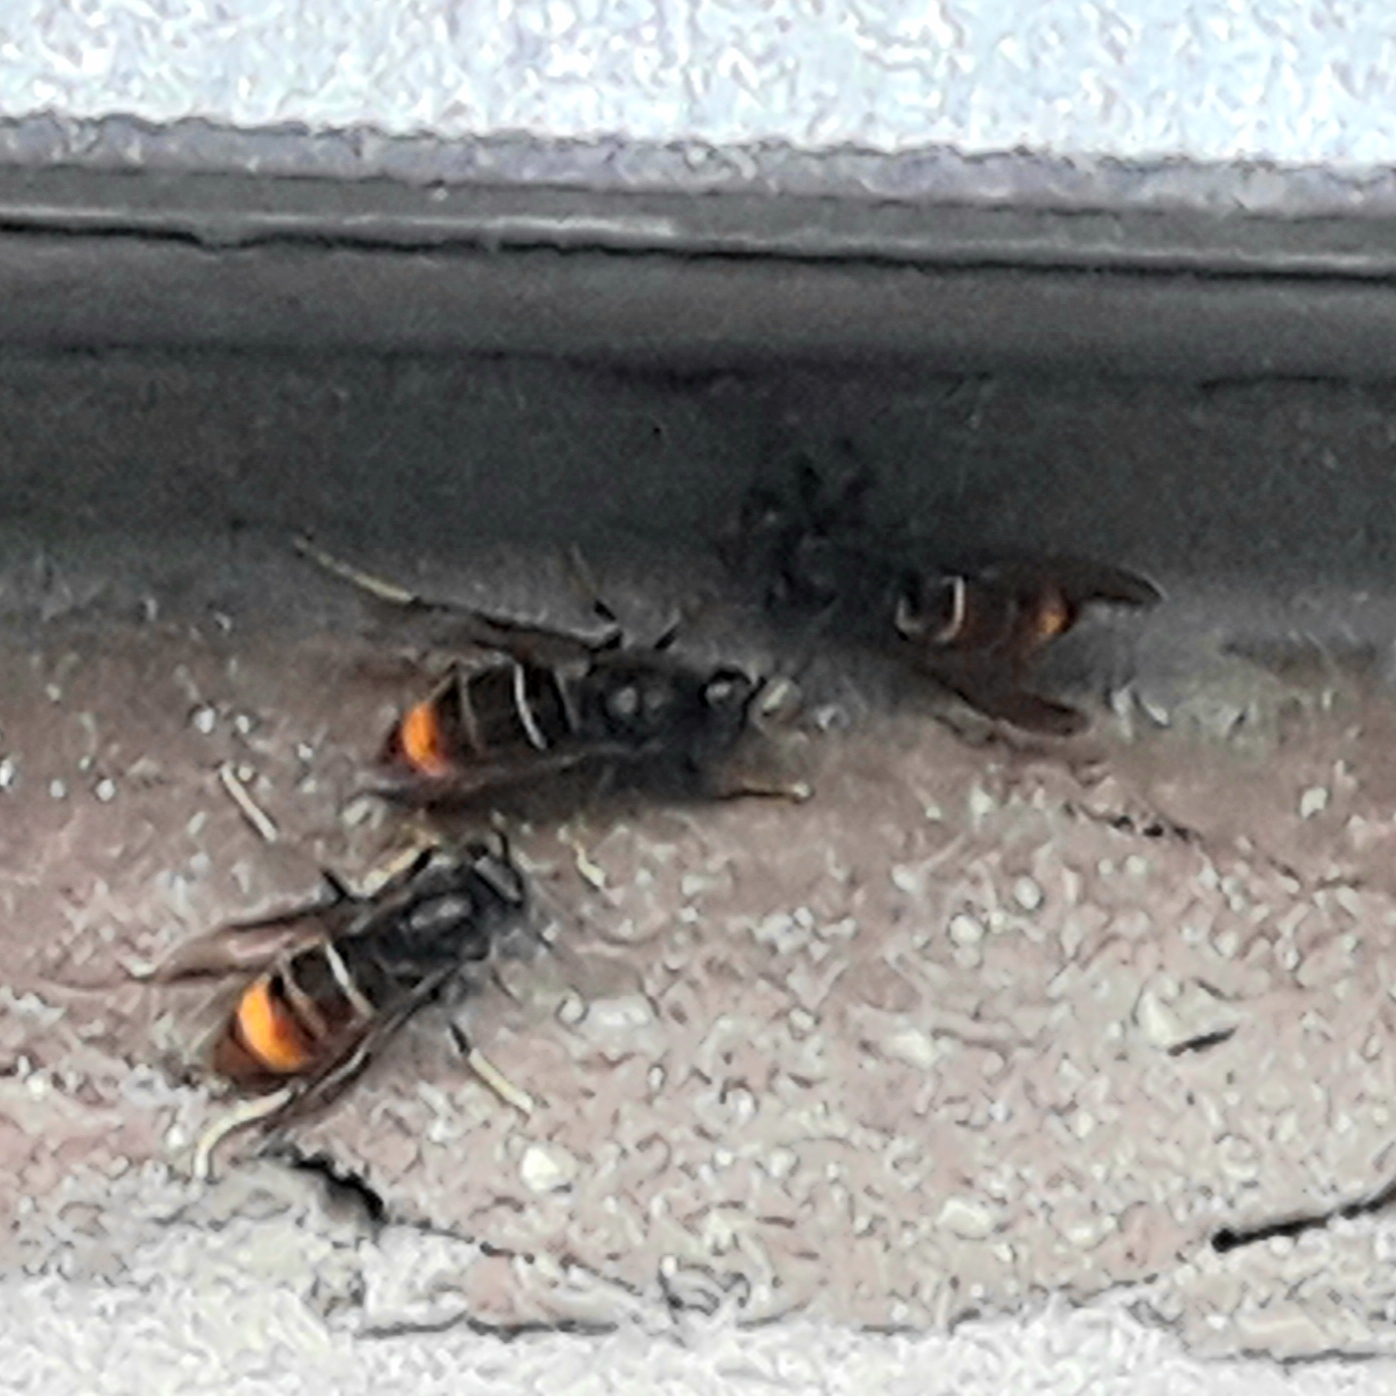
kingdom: Animalia
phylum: Arthropoda
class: Insecta
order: Hymenoptera
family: Vespidae
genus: Vespa
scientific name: Vespa velutina
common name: Asian hornet
